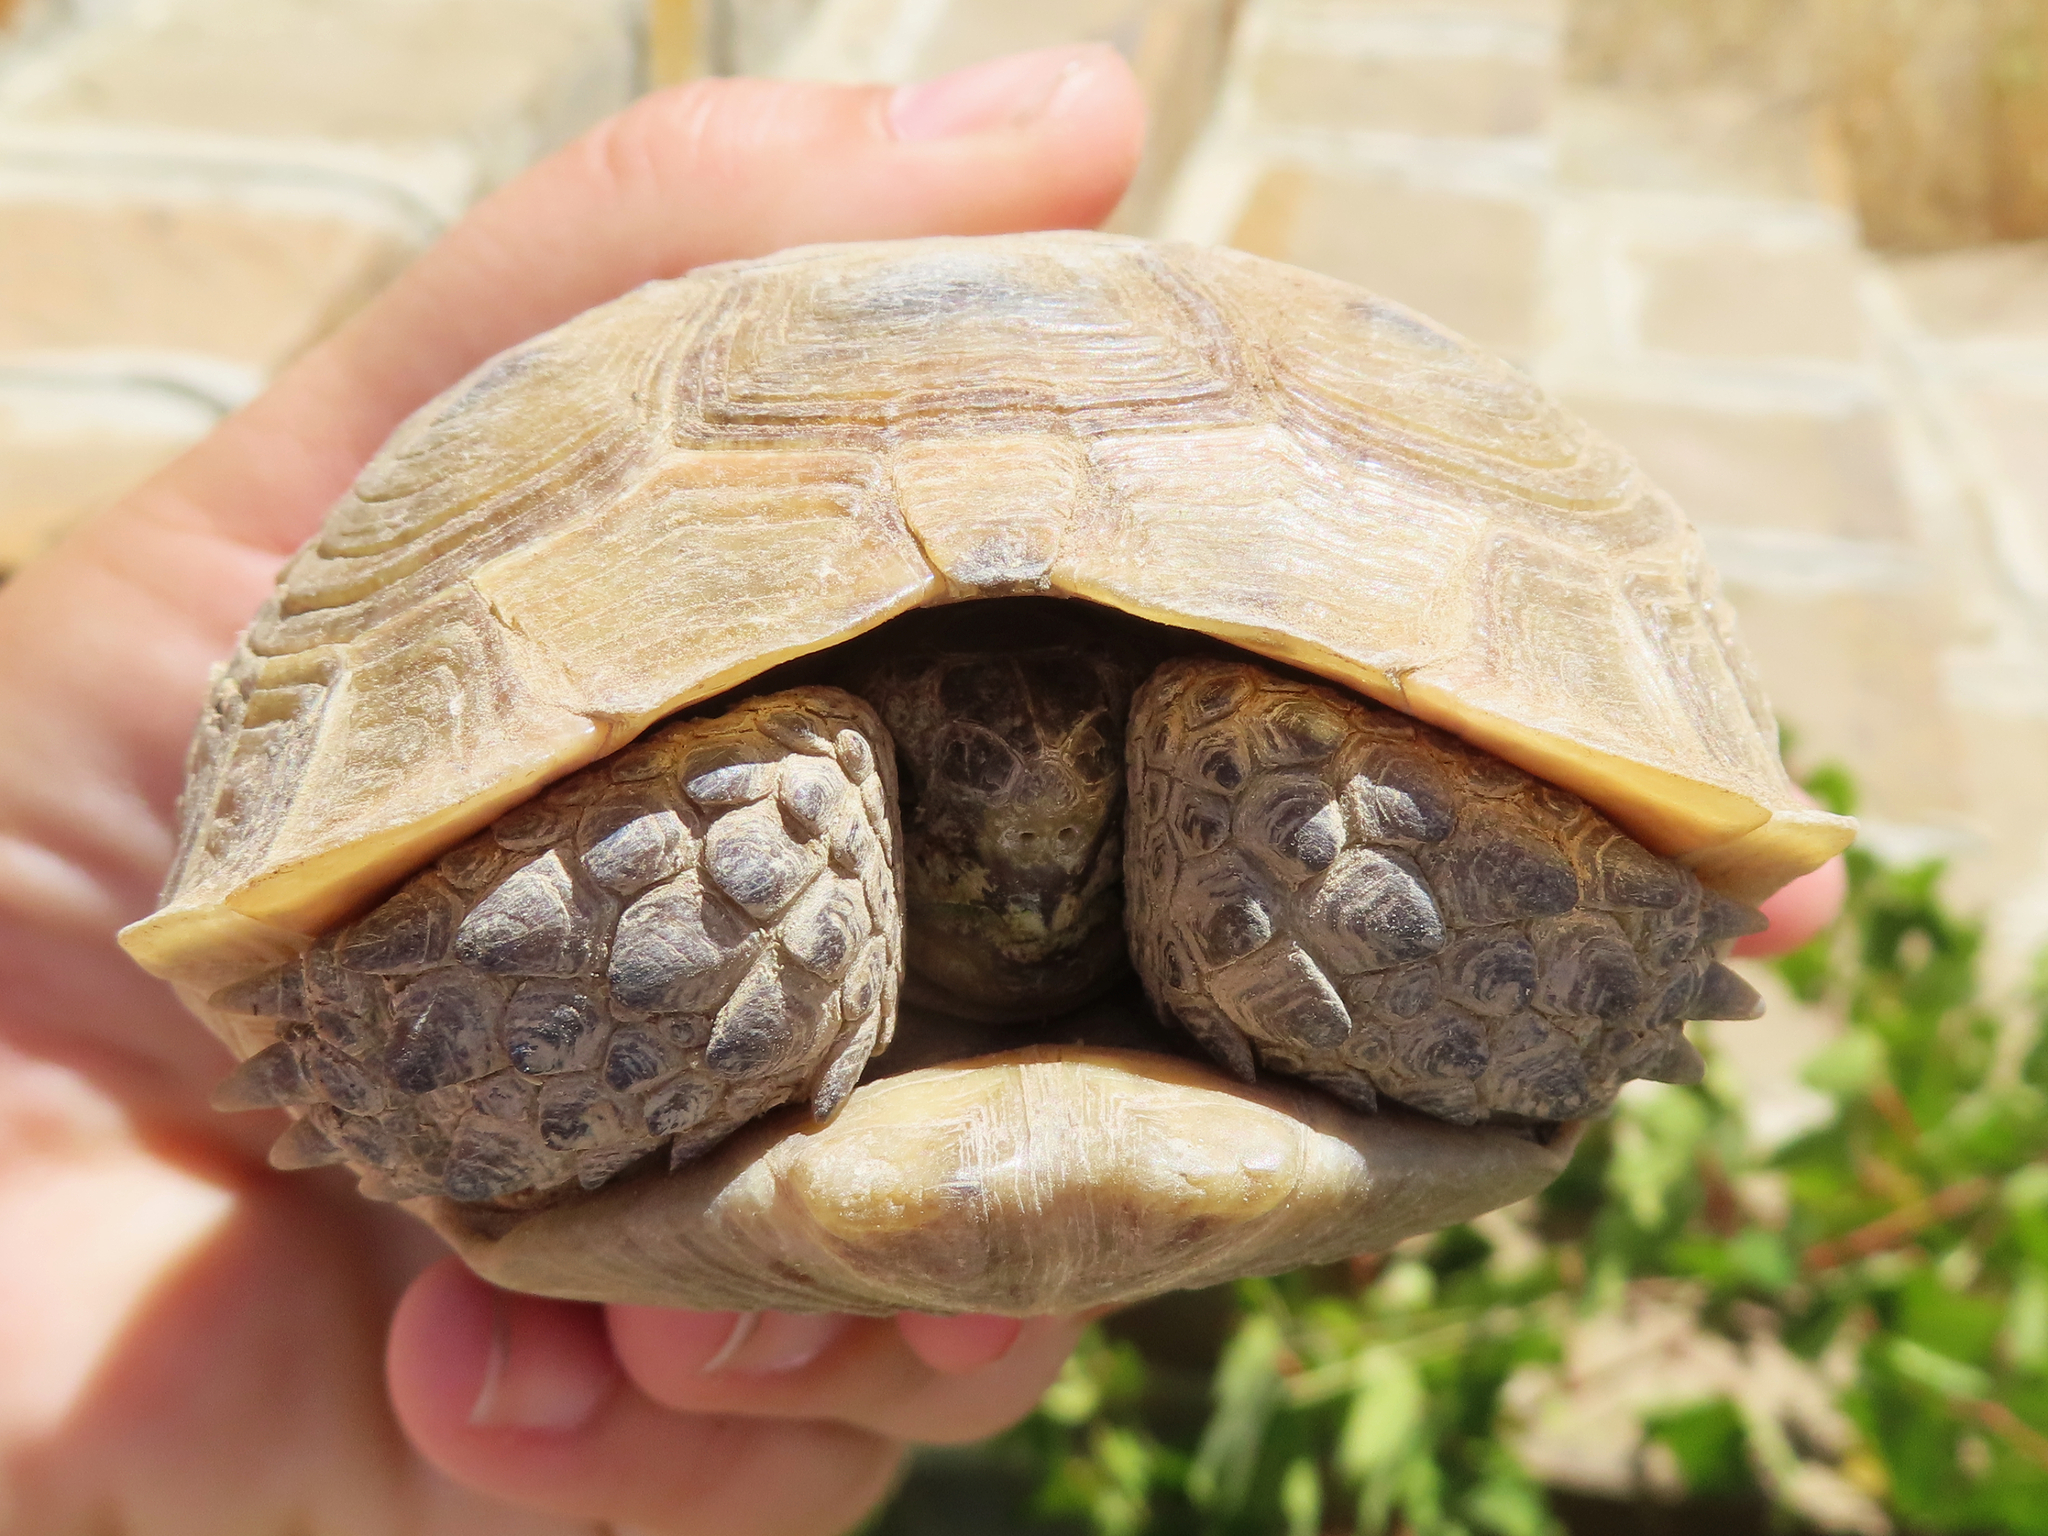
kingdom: Animalia
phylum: Chordata
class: Testudines
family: Testudinidae
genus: Testudo
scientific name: Testudo graeca
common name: Common tortoise
